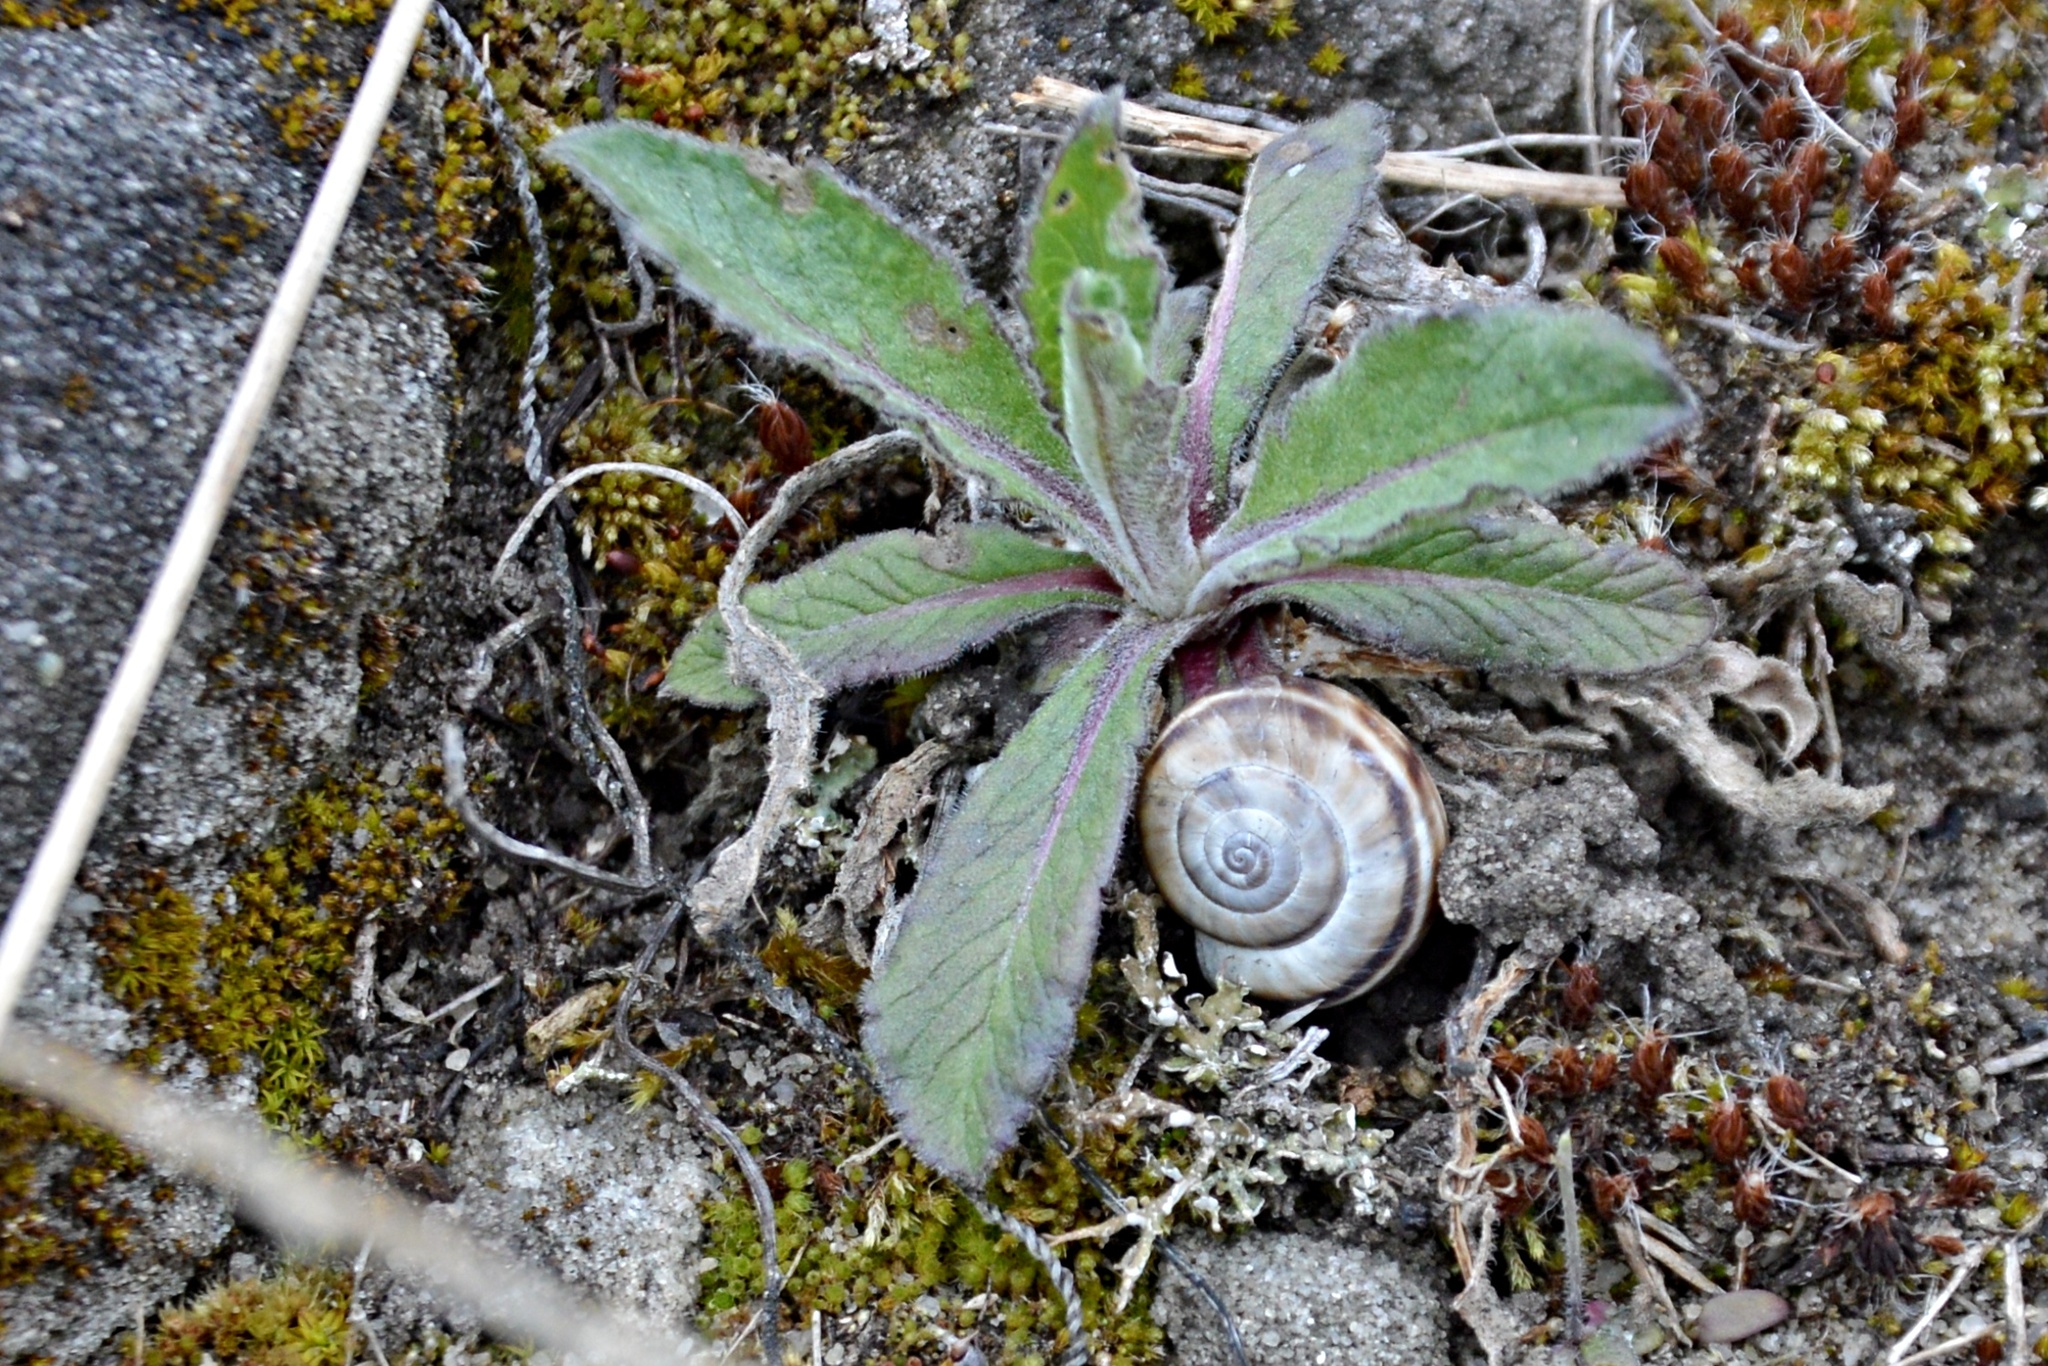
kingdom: Animalia
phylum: Mollusca
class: Gastropoda
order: Stylommatophora
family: Geomitridae
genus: Xerolenta
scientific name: Xerolenta obvia
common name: White heath snail
